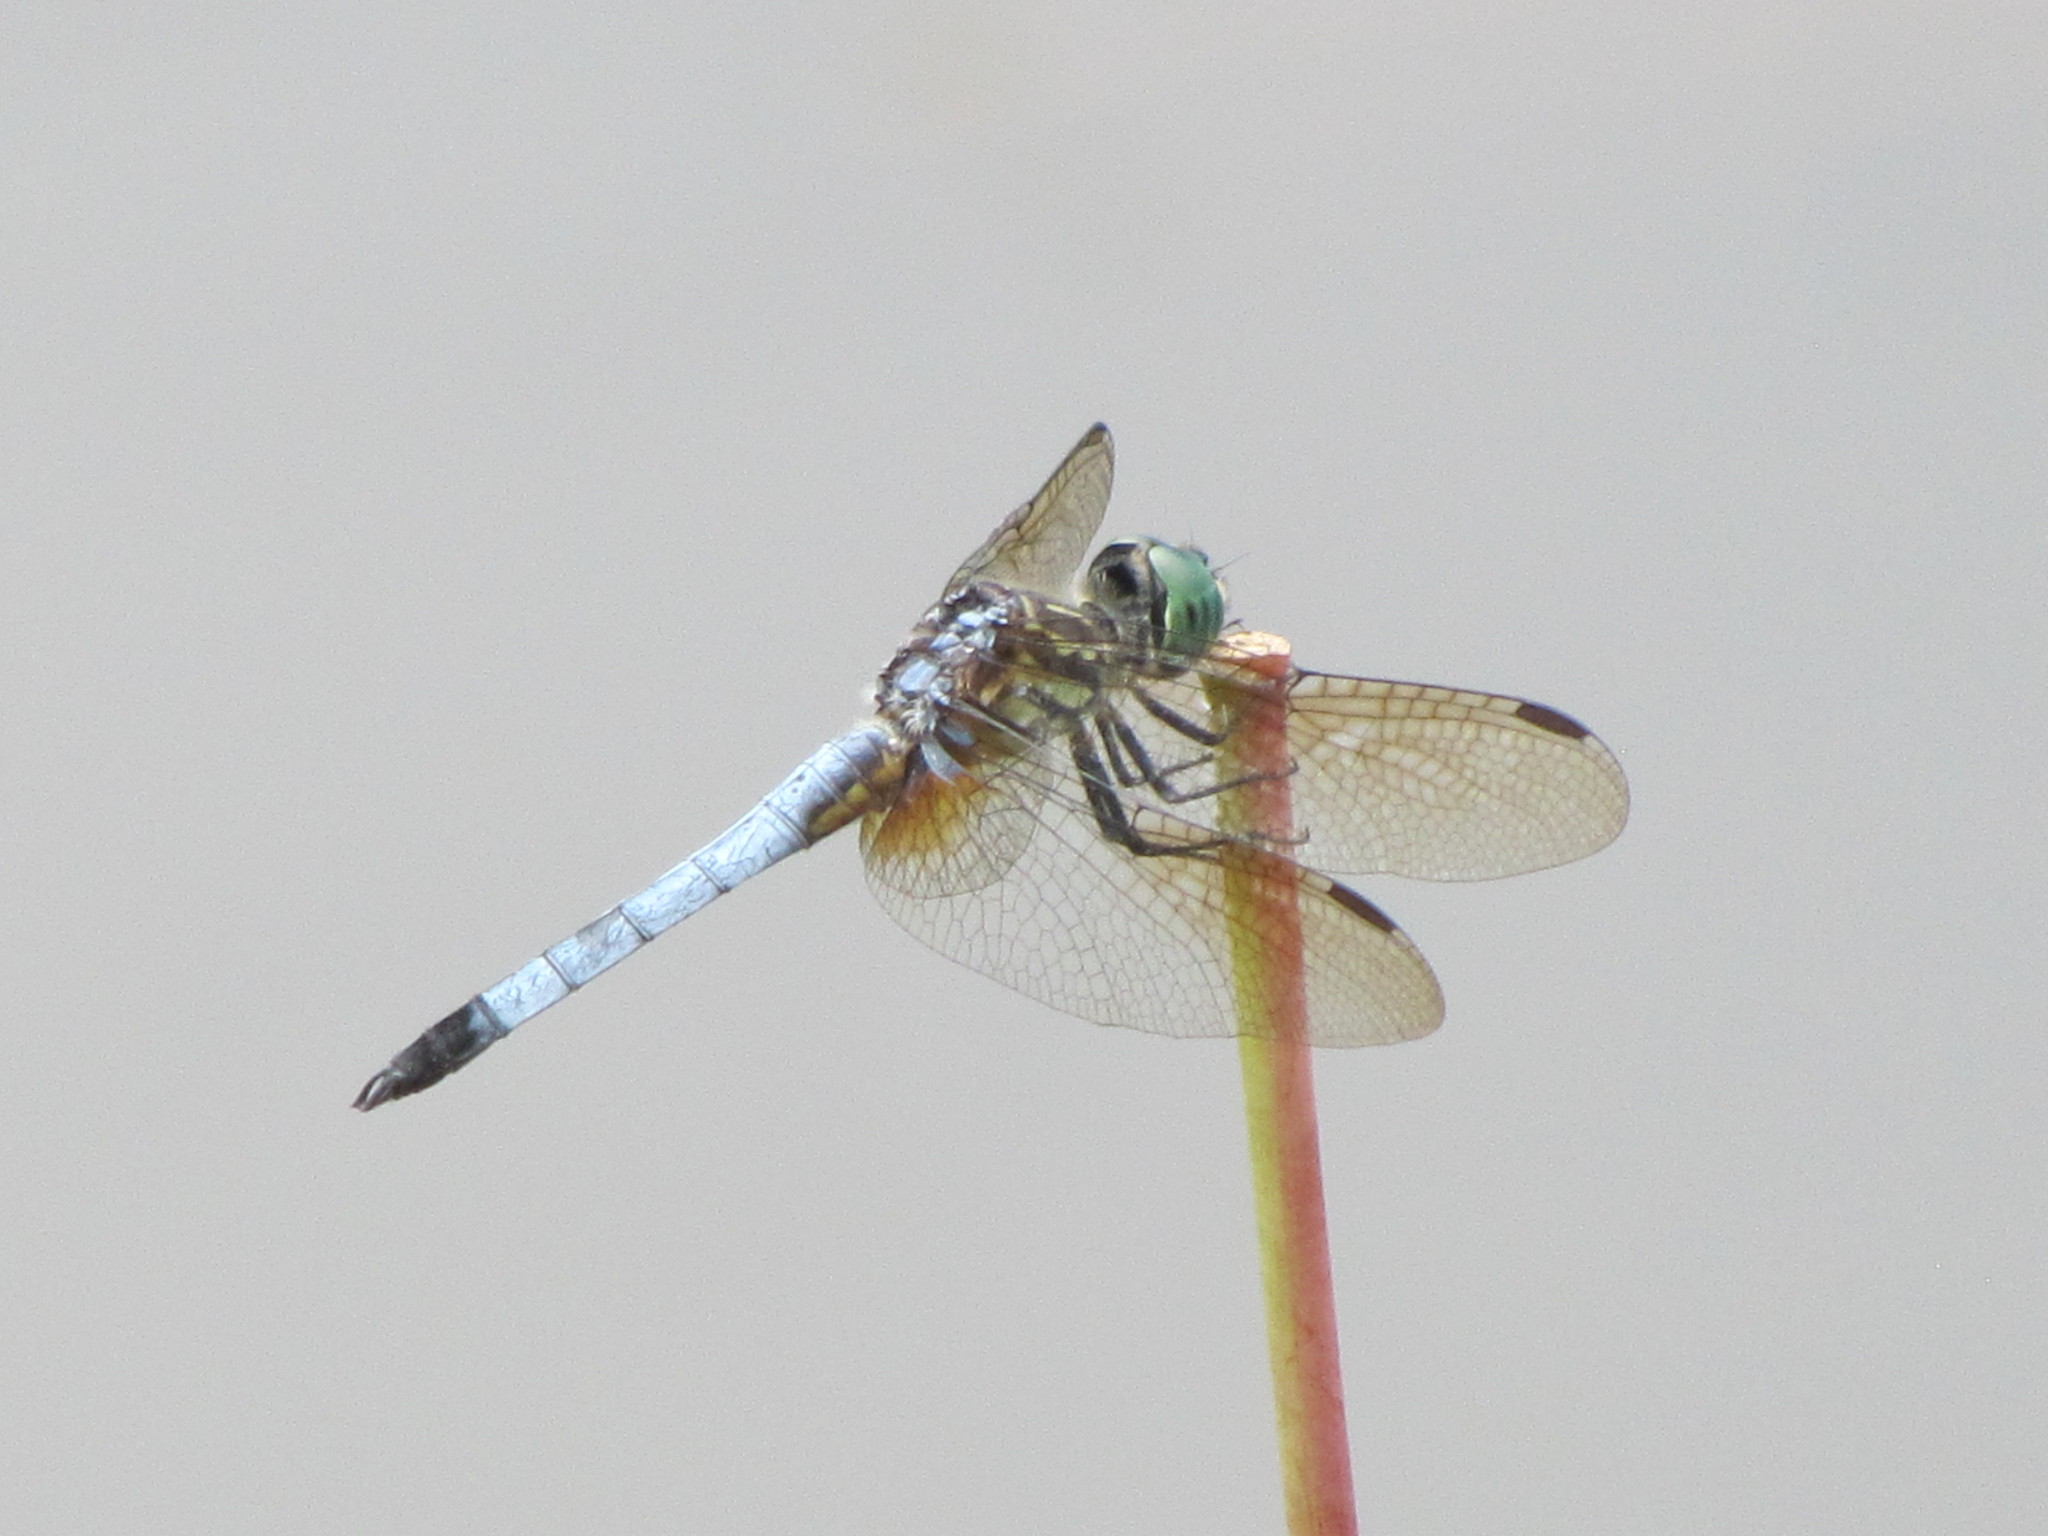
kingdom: Animalia
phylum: Arthropoda
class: Insecta
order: Odonata
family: Libellulidae
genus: Pachydiplax
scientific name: Pachydiplax longipennis
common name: Blue dasher
